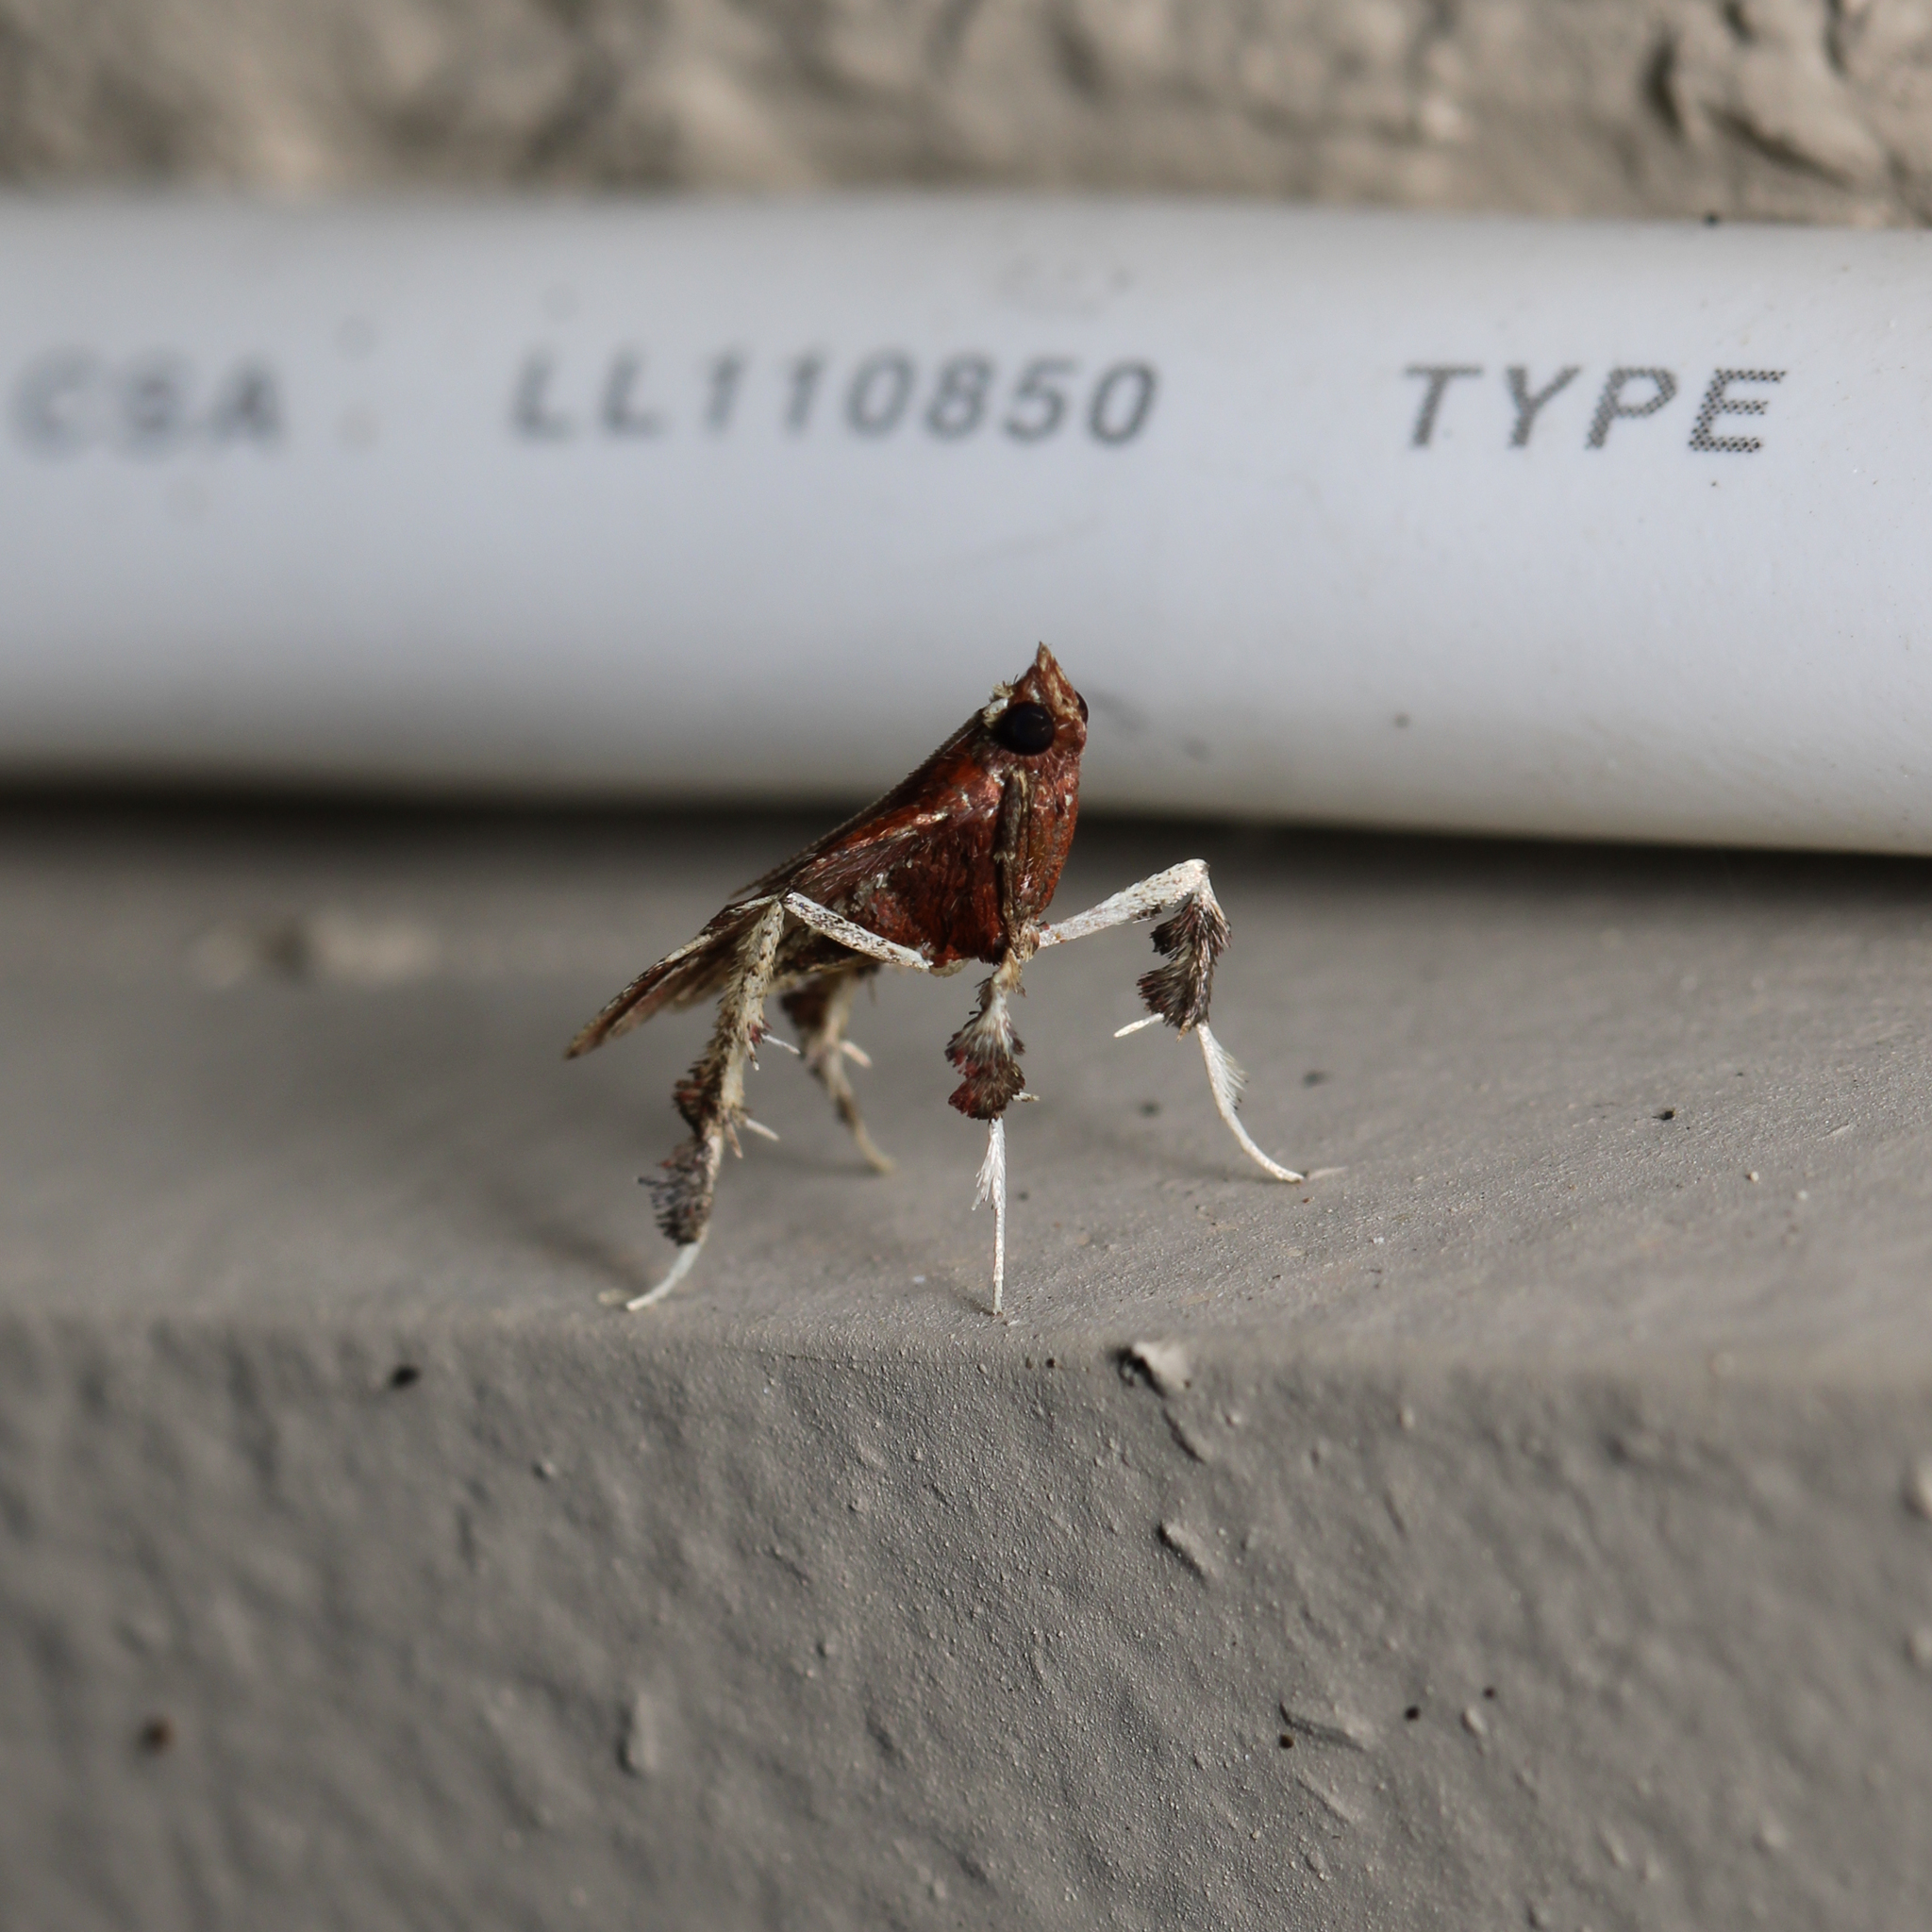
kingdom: Animalia
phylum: Arthropoda
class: Insecta
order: Lepidoptera
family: Pyralidae
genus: Galasa
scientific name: Galasa nigrinodis
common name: Boxwood leaftier moth
